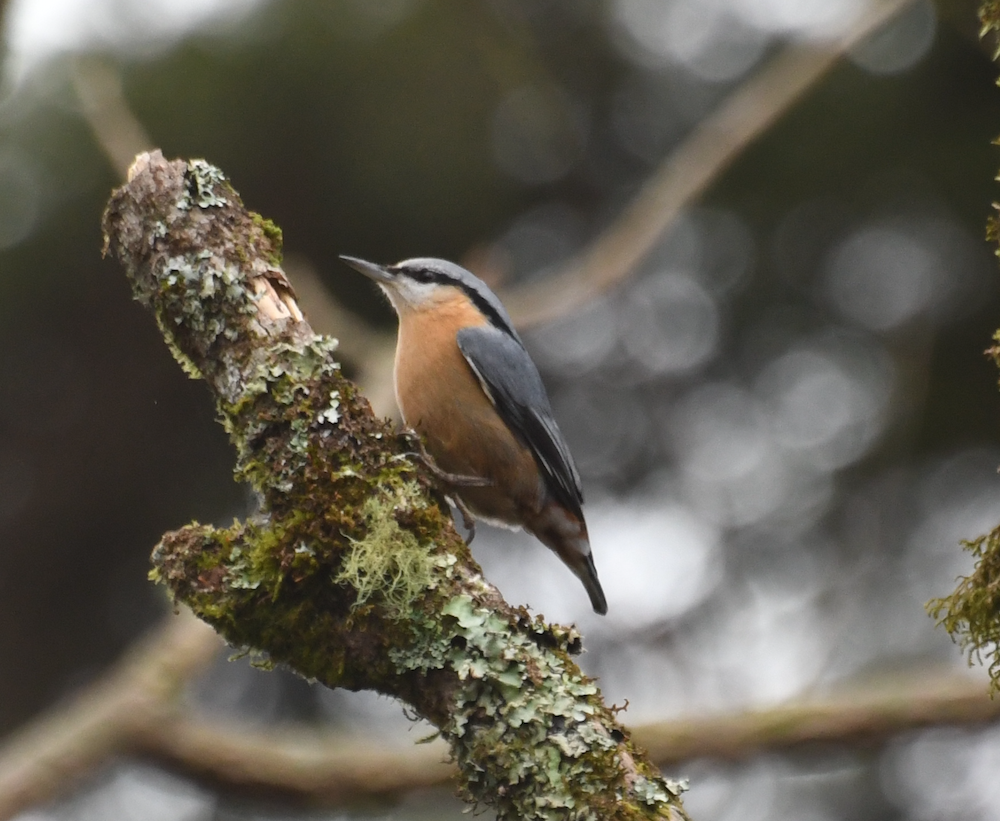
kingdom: Animalia
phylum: Chordata
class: Aves
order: Passeriformes
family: Sittidae
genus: Sitta
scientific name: Sitta europaea
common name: Eurasian nuthatch
